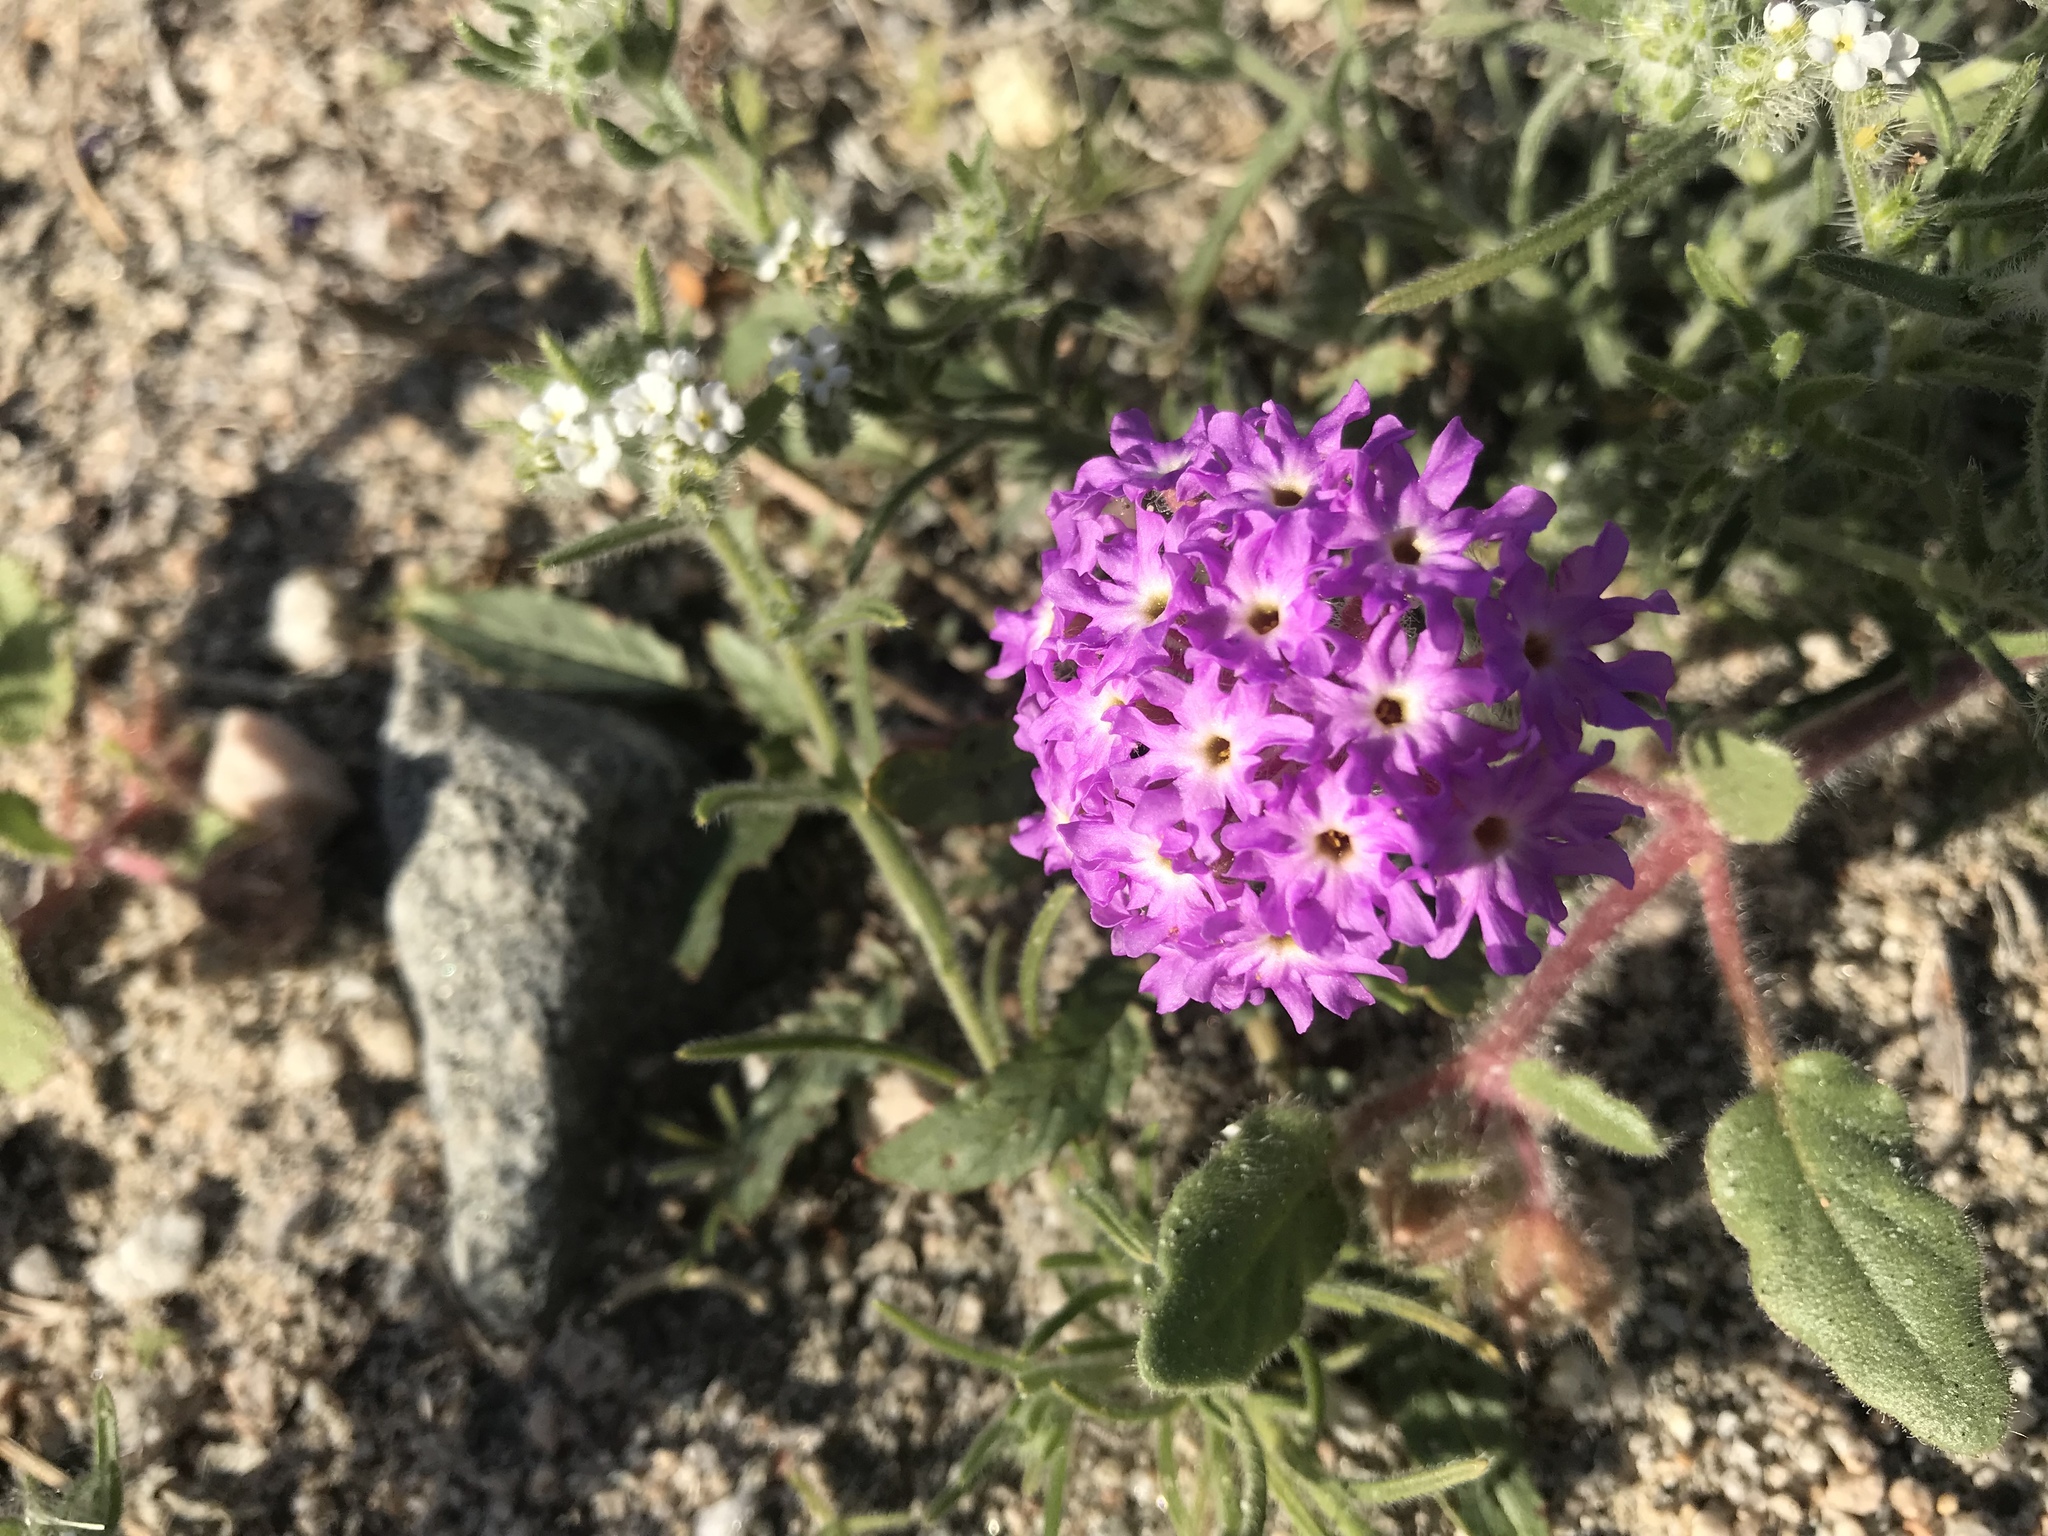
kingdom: Plantae
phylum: Tracheophyta
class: Magnoliopsida
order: Caryophyllales
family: Nyctaginaceae
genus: Abronia
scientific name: Abronia villosa
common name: Desert sand-verbena
